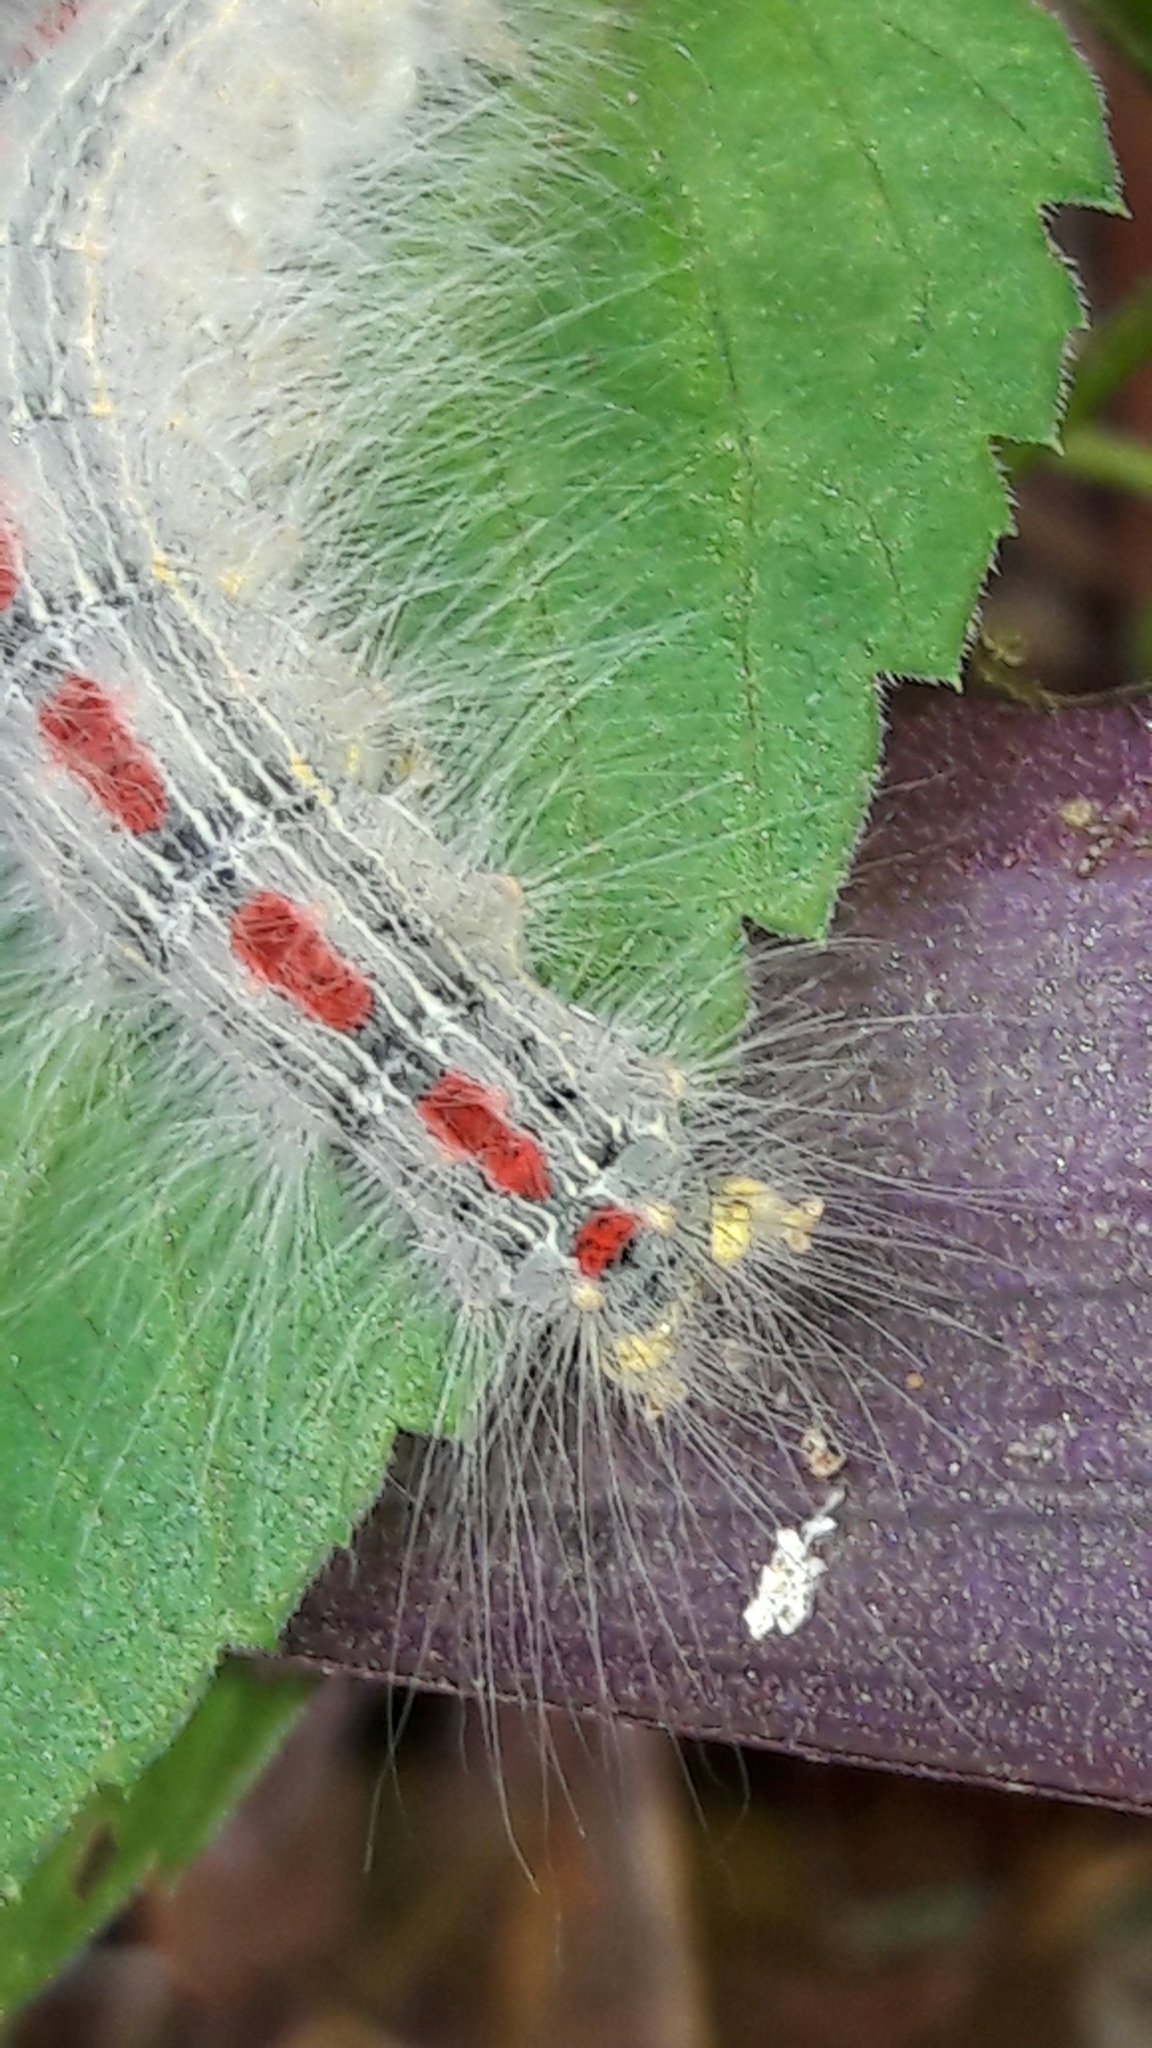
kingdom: Animalia
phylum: Arthropoda
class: Insecta
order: Lepidoptera
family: Lasiocampidae
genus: Euglyphis
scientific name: Euglyphis aenegia
